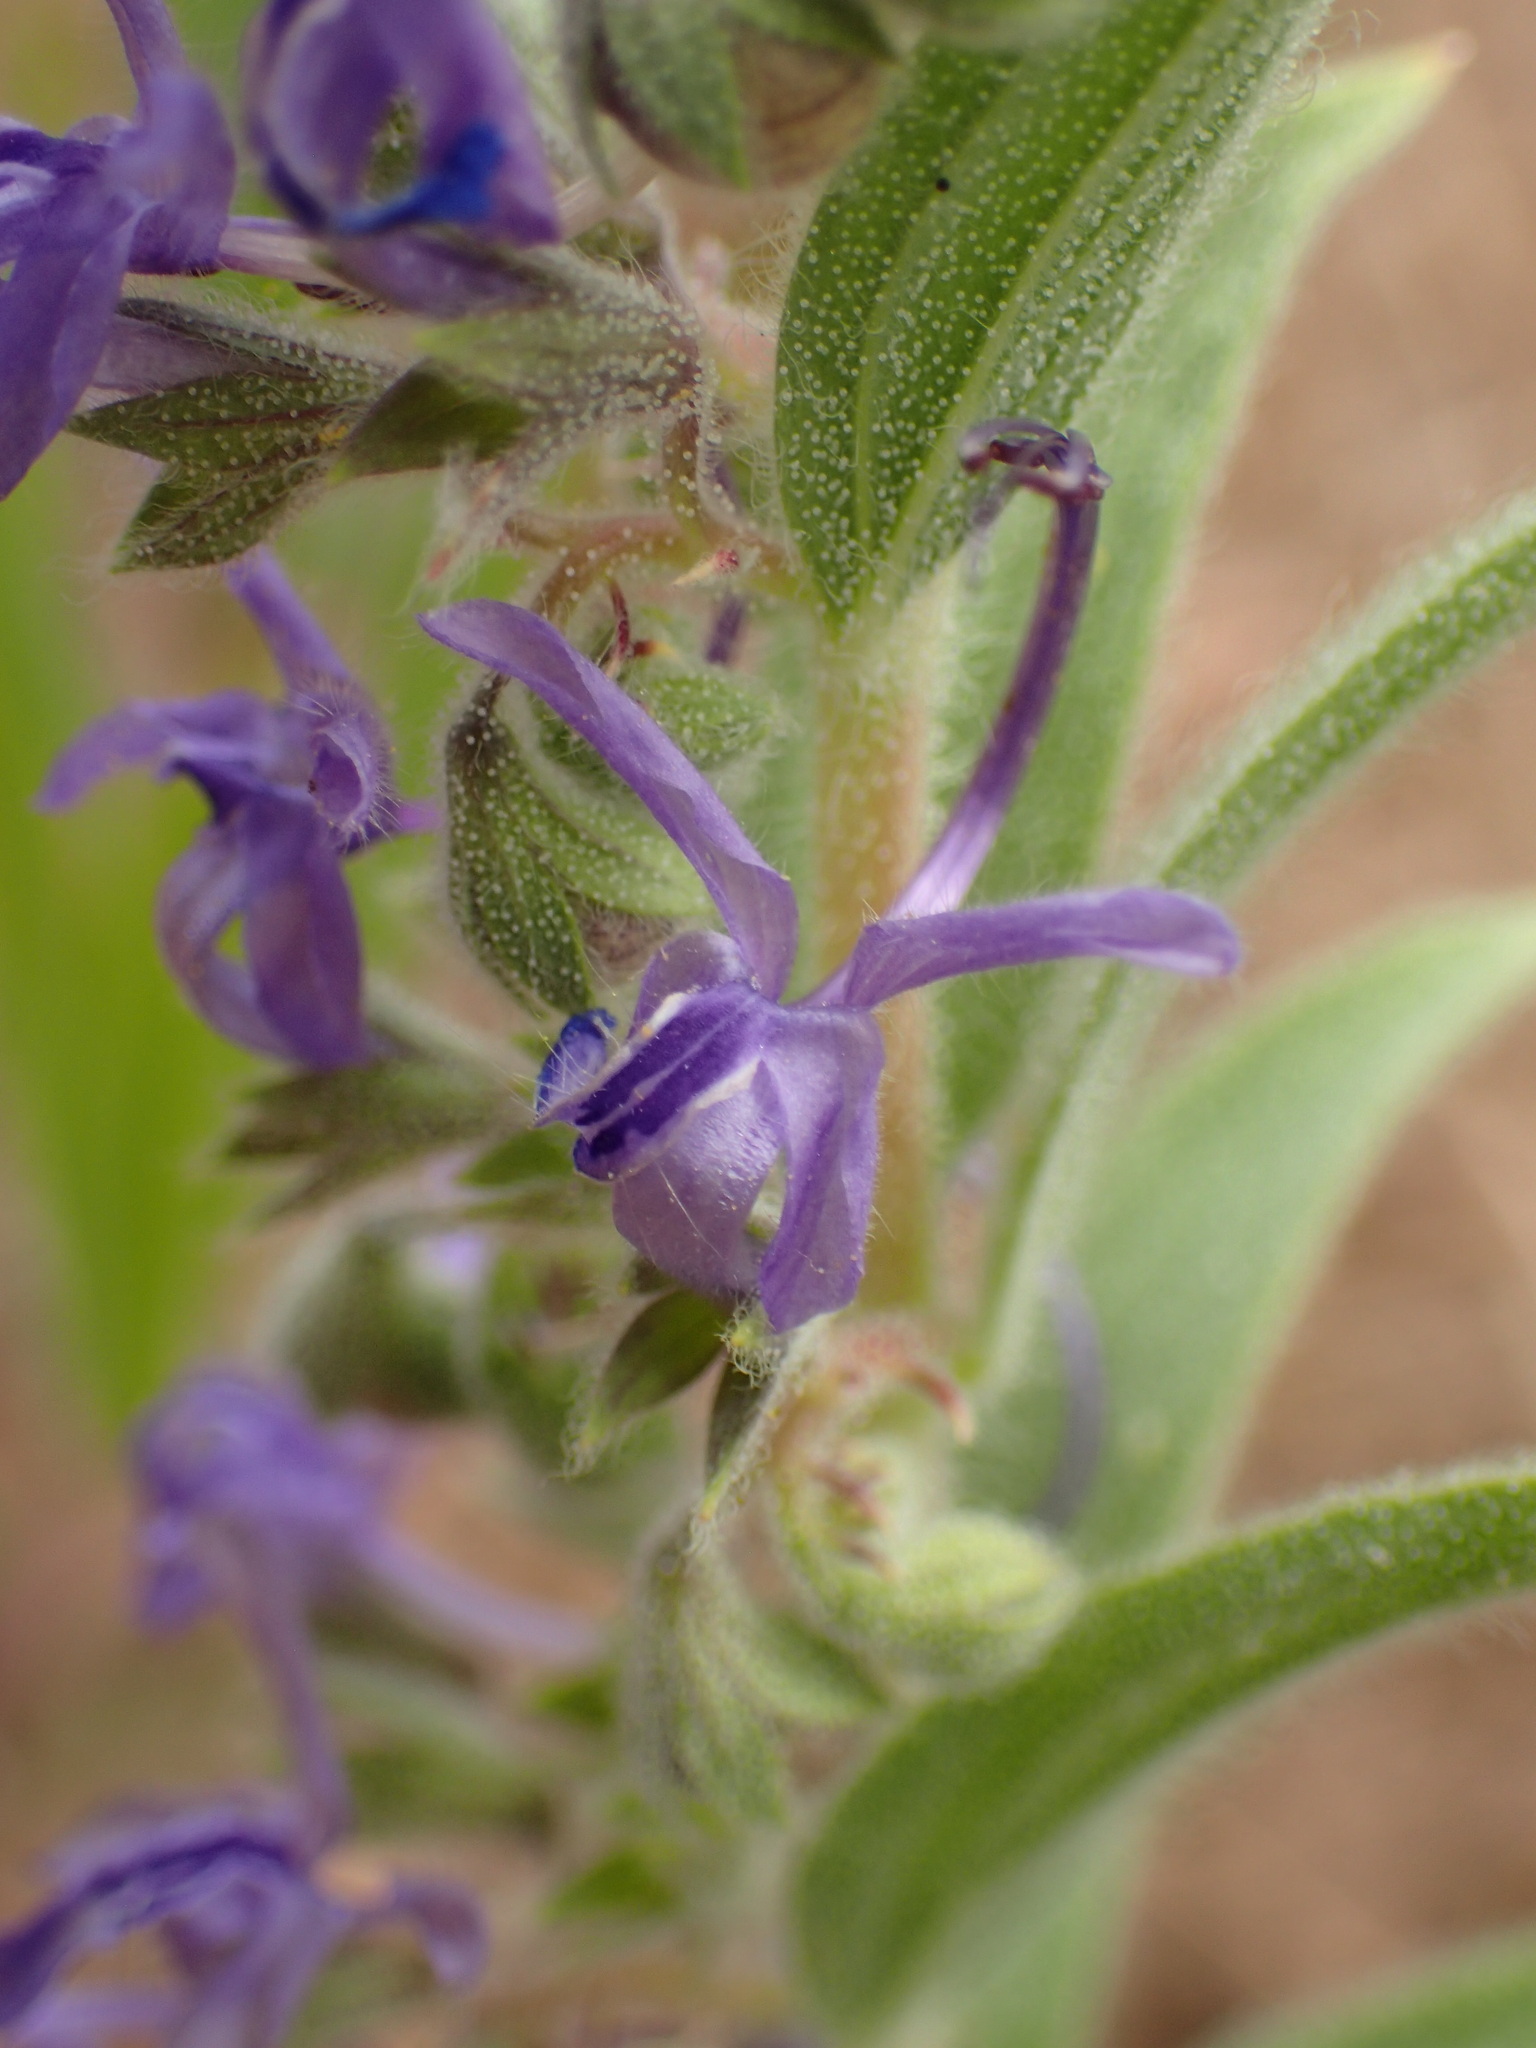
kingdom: Plantae
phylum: Tracheophyta
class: Magnoliopsida
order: Lamiales
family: Lamiaceae
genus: Trichostema
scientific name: Trichostema lanceolatum
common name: Vinegar-weed
